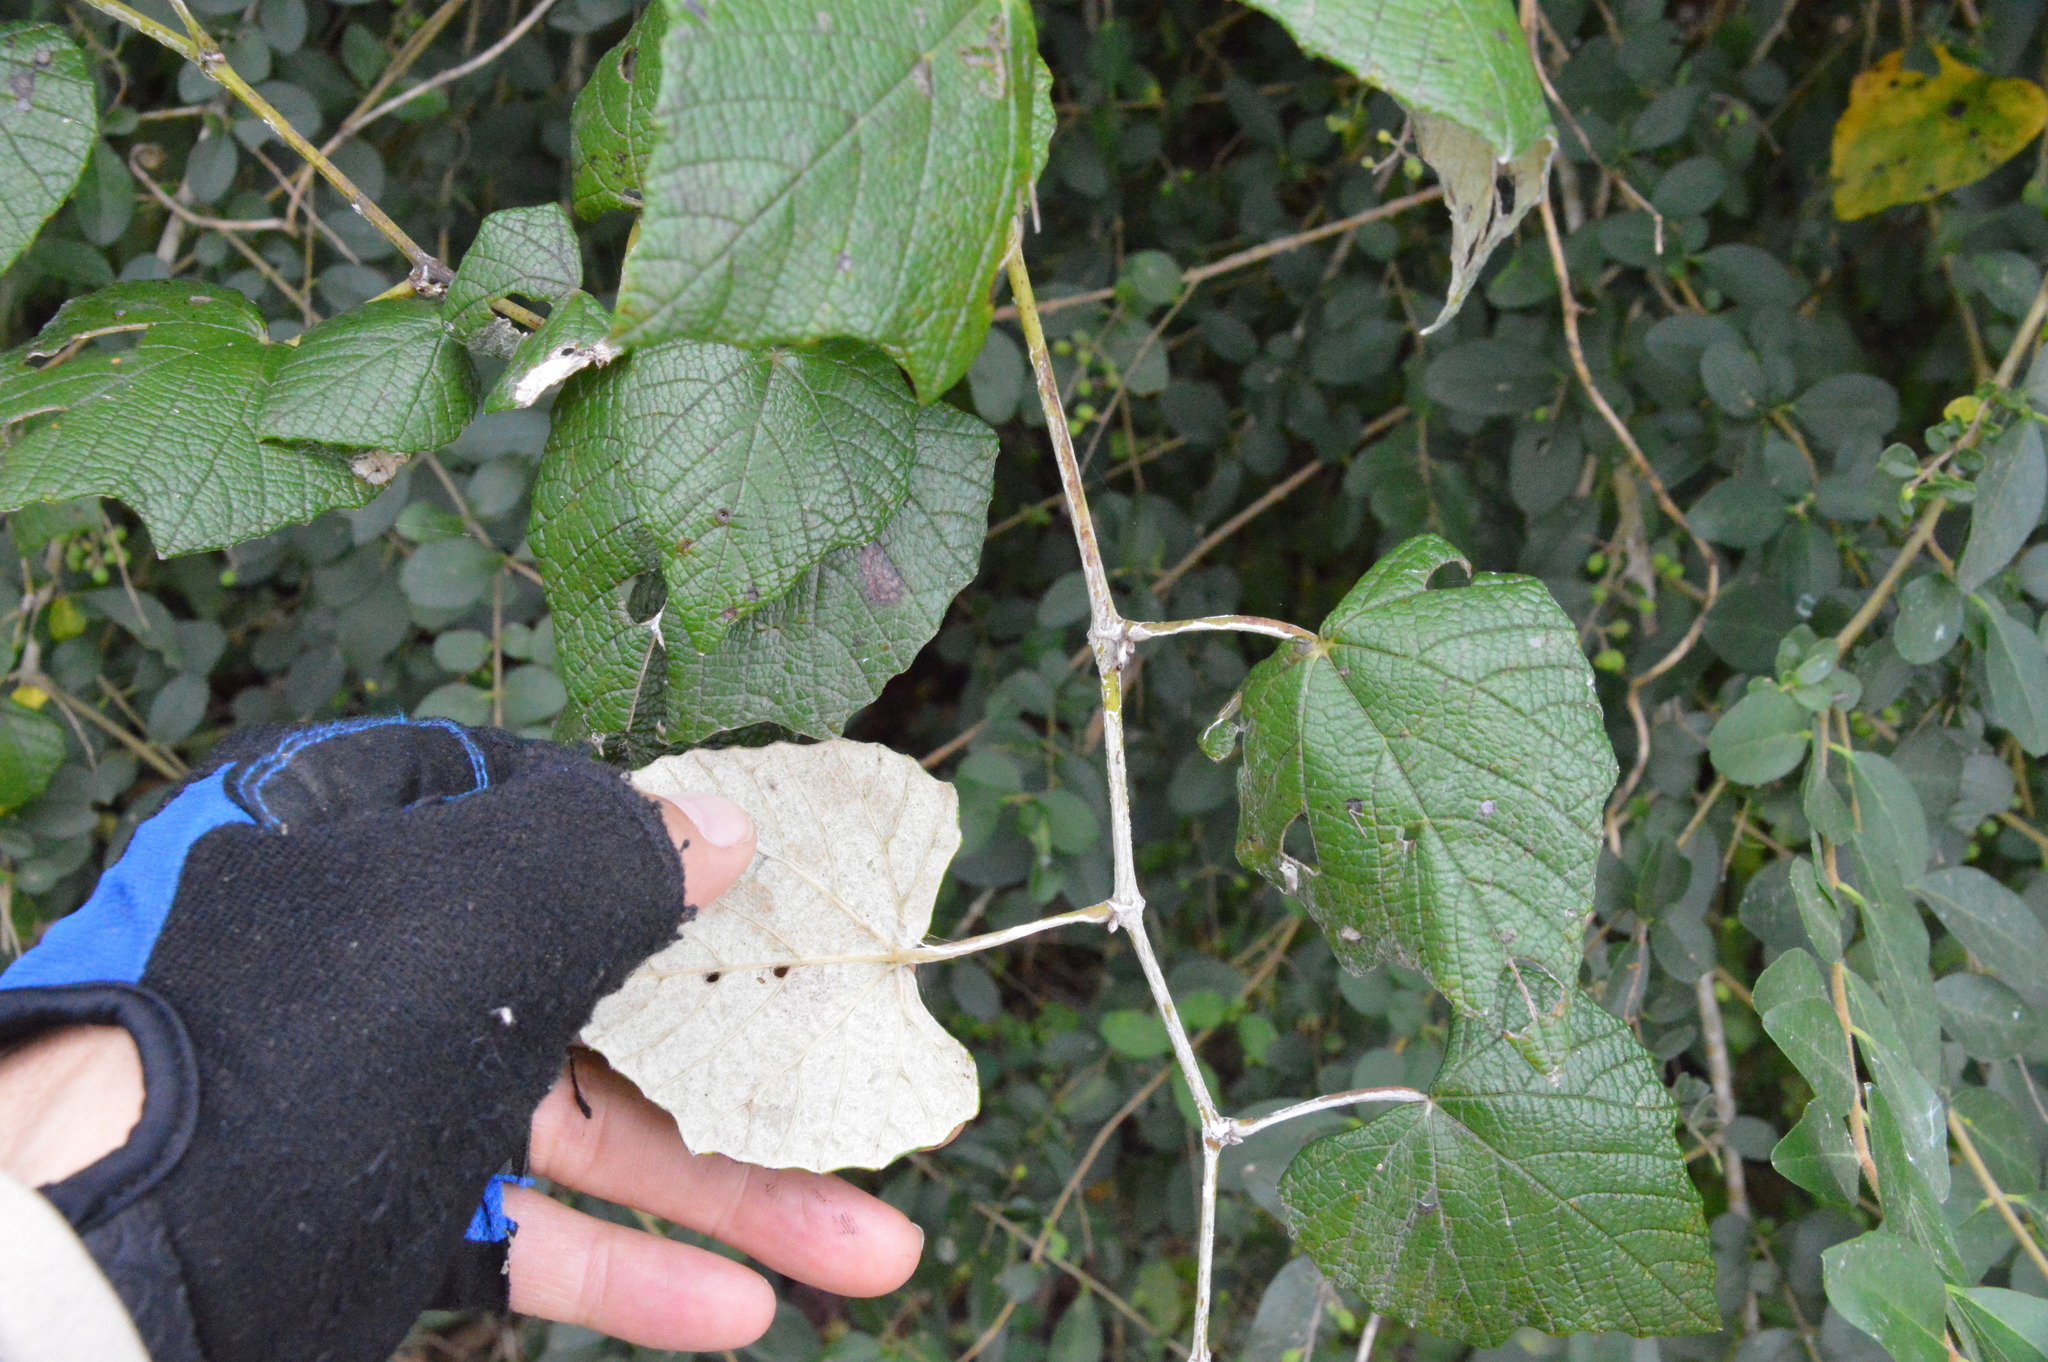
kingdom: Plantae
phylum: Tracheophyta
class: Magnoliopsida
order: Vitales
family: Vitaceae
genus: Vitis
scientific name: Vitis mustangensis
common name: Mustang grape
